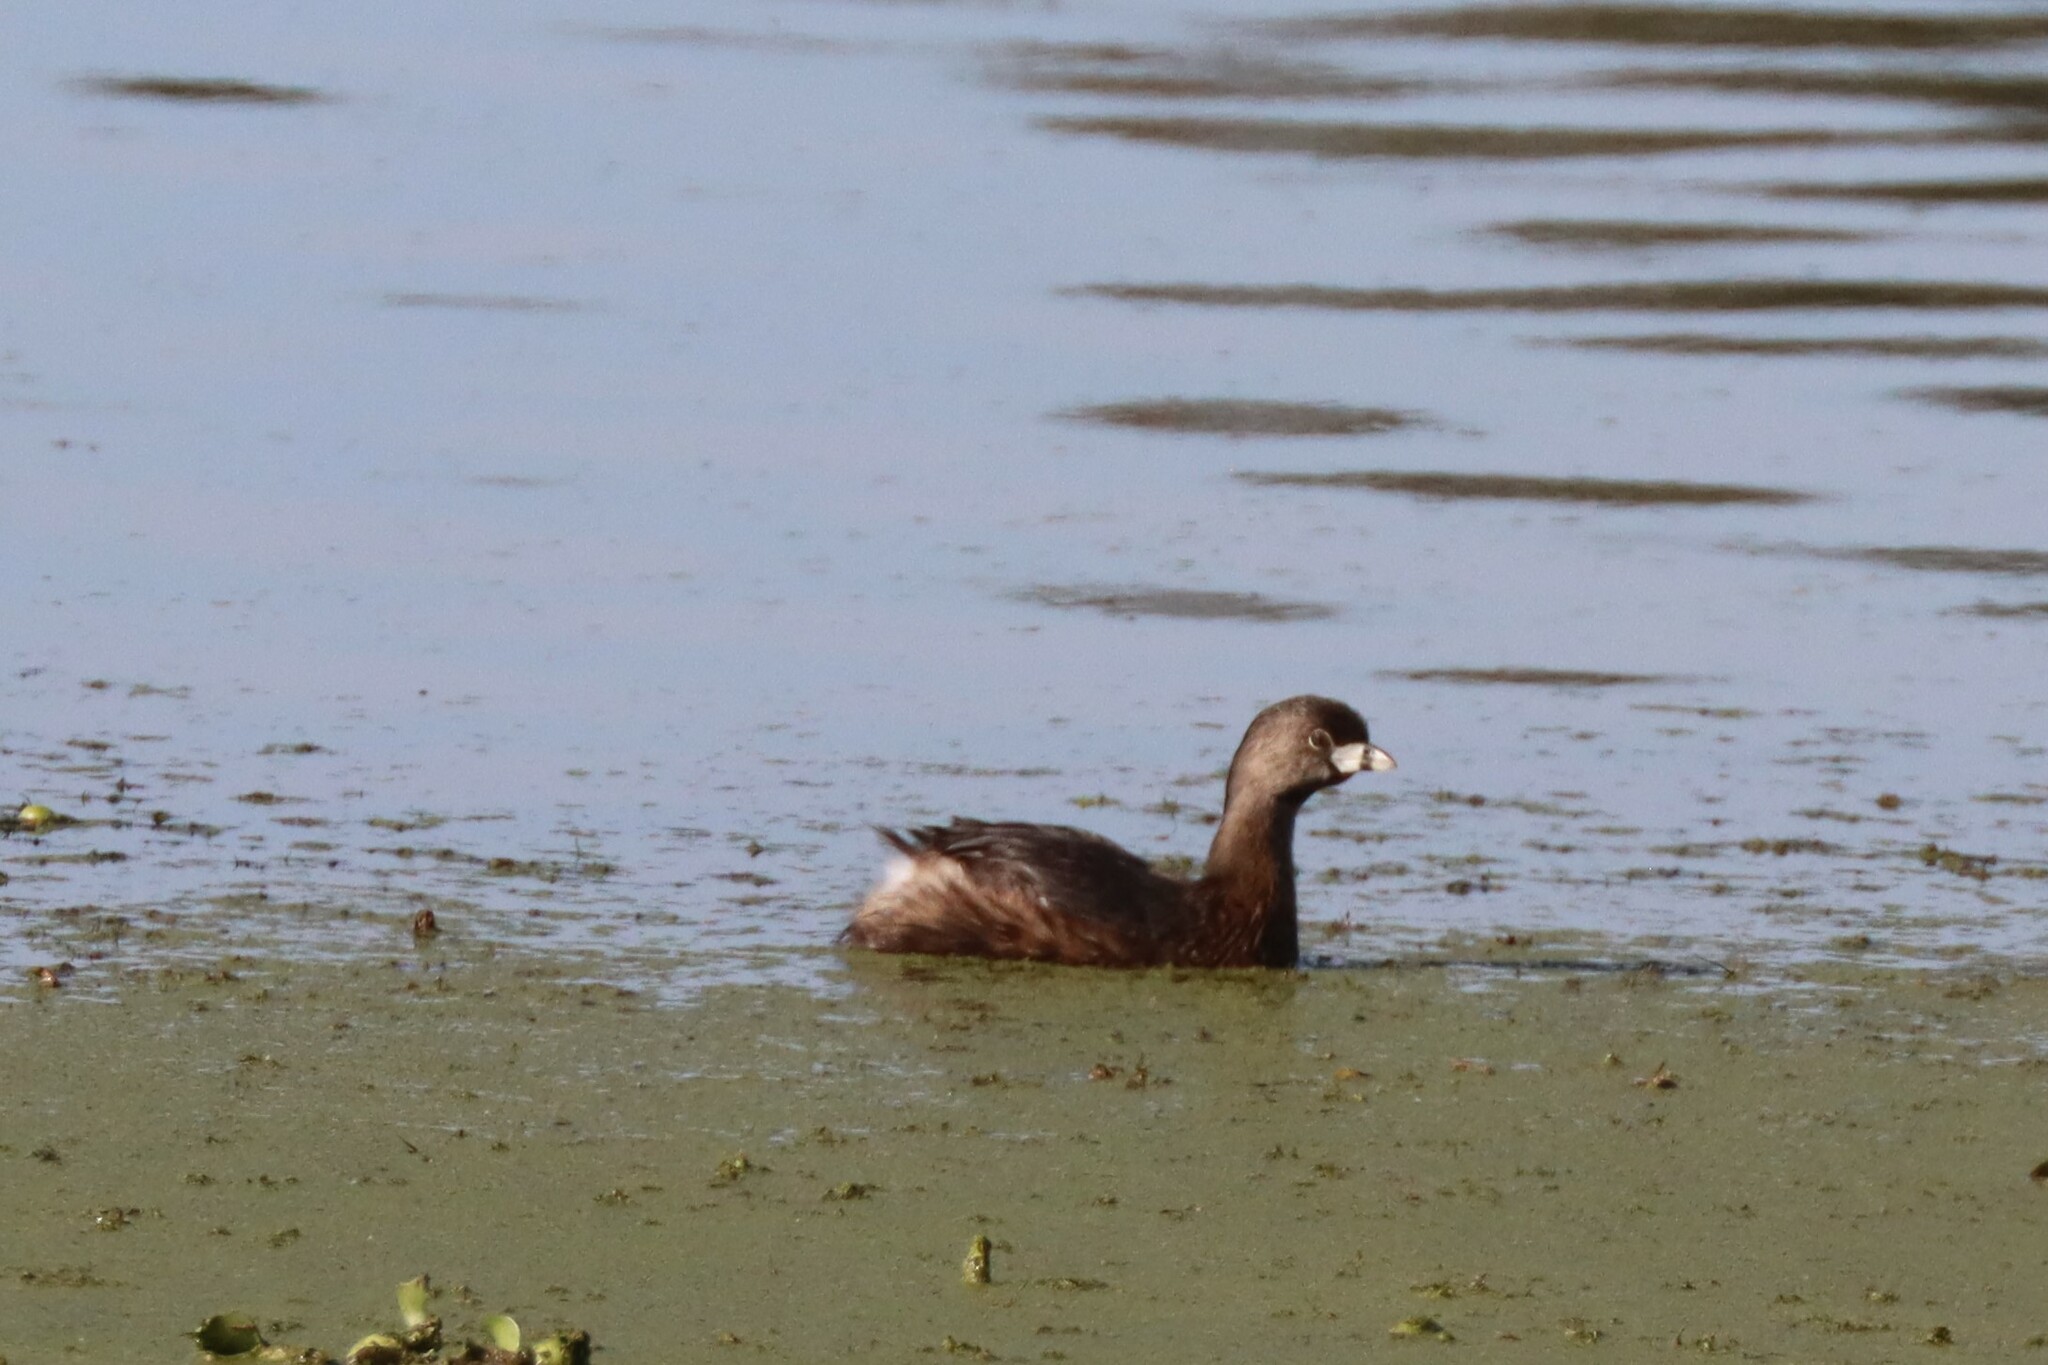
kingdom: Animalia
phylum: Chordata
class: Aves
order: Podicipediformes
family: Podicipedidae
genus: Podilymbus
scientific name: Podilymbus podiceps
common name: Pied-billed grebe
